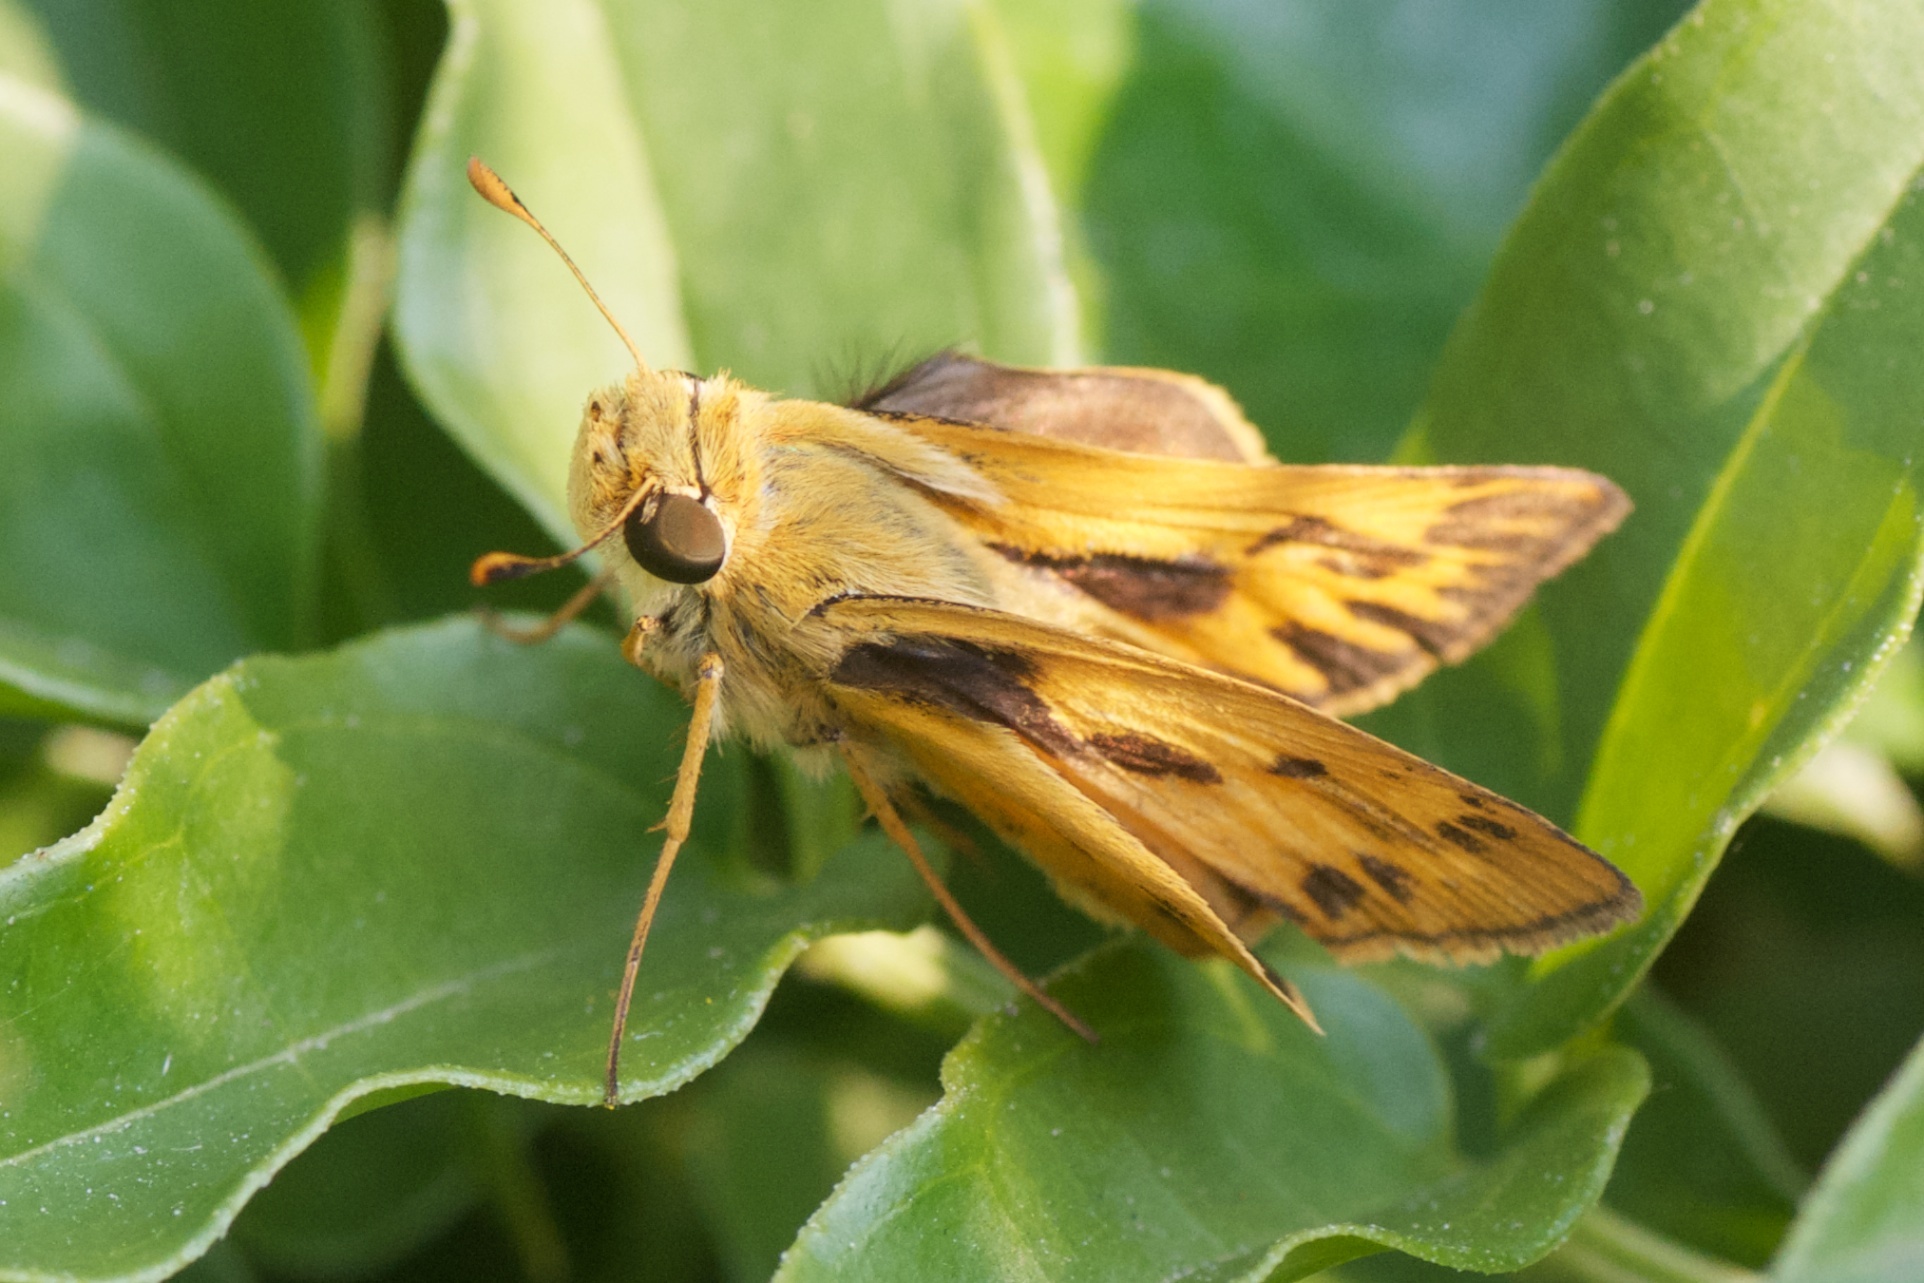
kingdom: Animalia
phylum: Arthropoda
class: Insecta
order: Lepidoptera
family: Hesperiidae
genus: Hylephila
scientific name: Hylephila phyleus
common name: Fiery skipper
